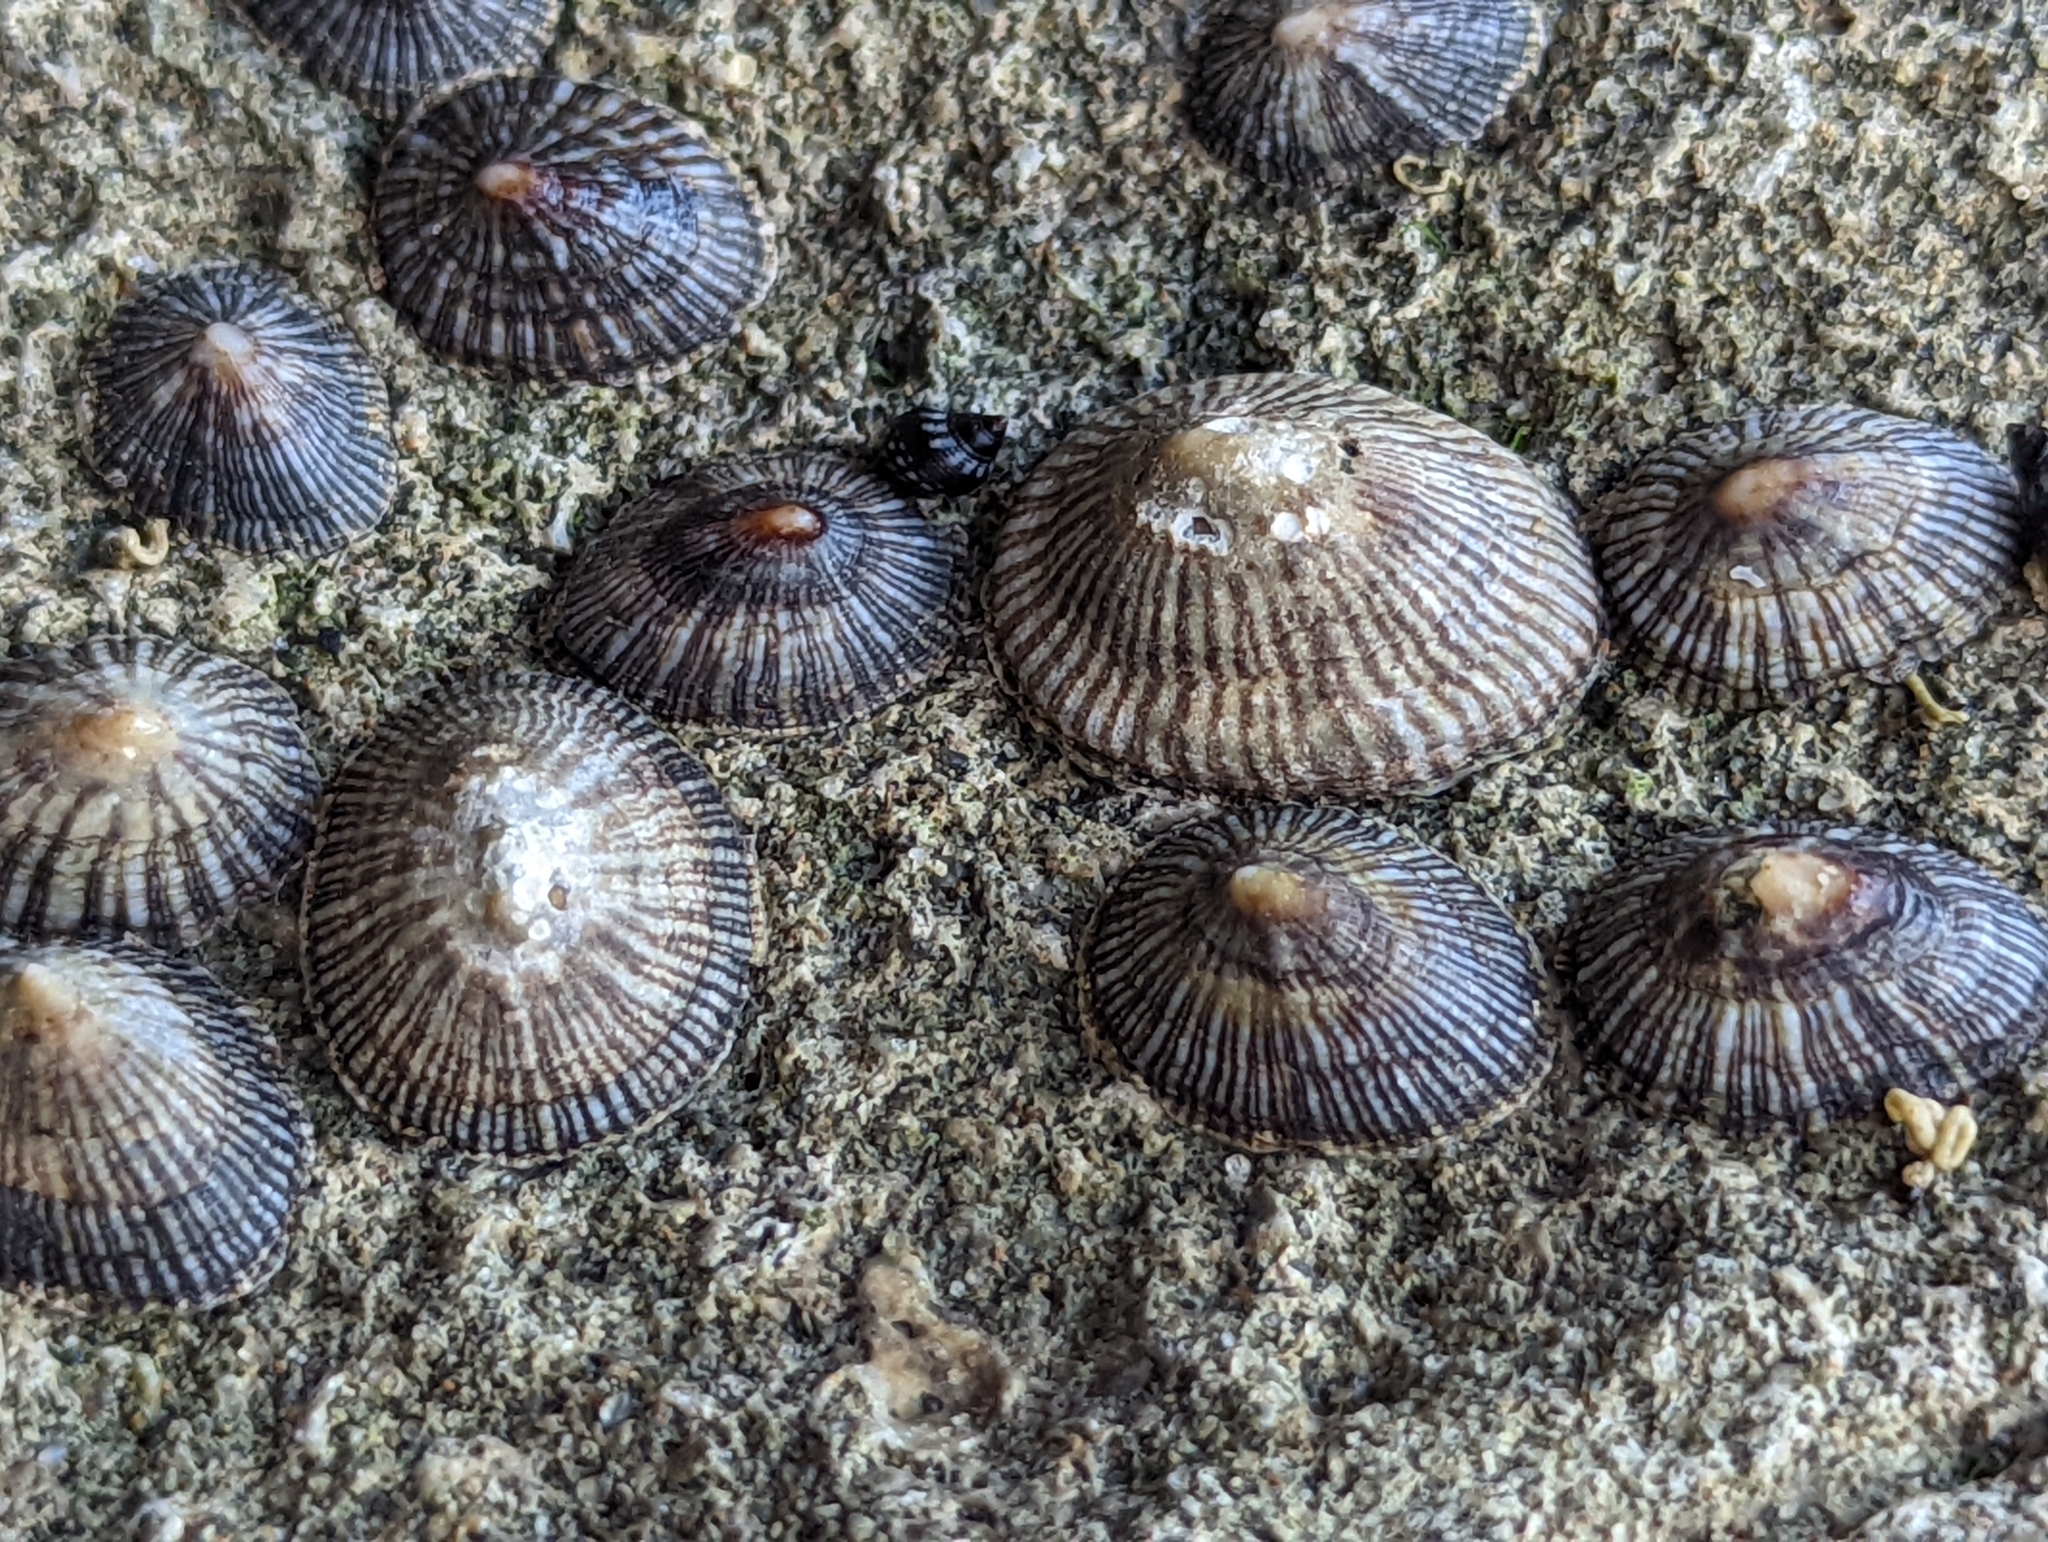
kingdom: Animalia
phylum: Mollusca
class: Gastropoda
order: Siphonariida
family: Siphonariidae
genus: Siphonaria
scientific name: Siphonaria naufragum
